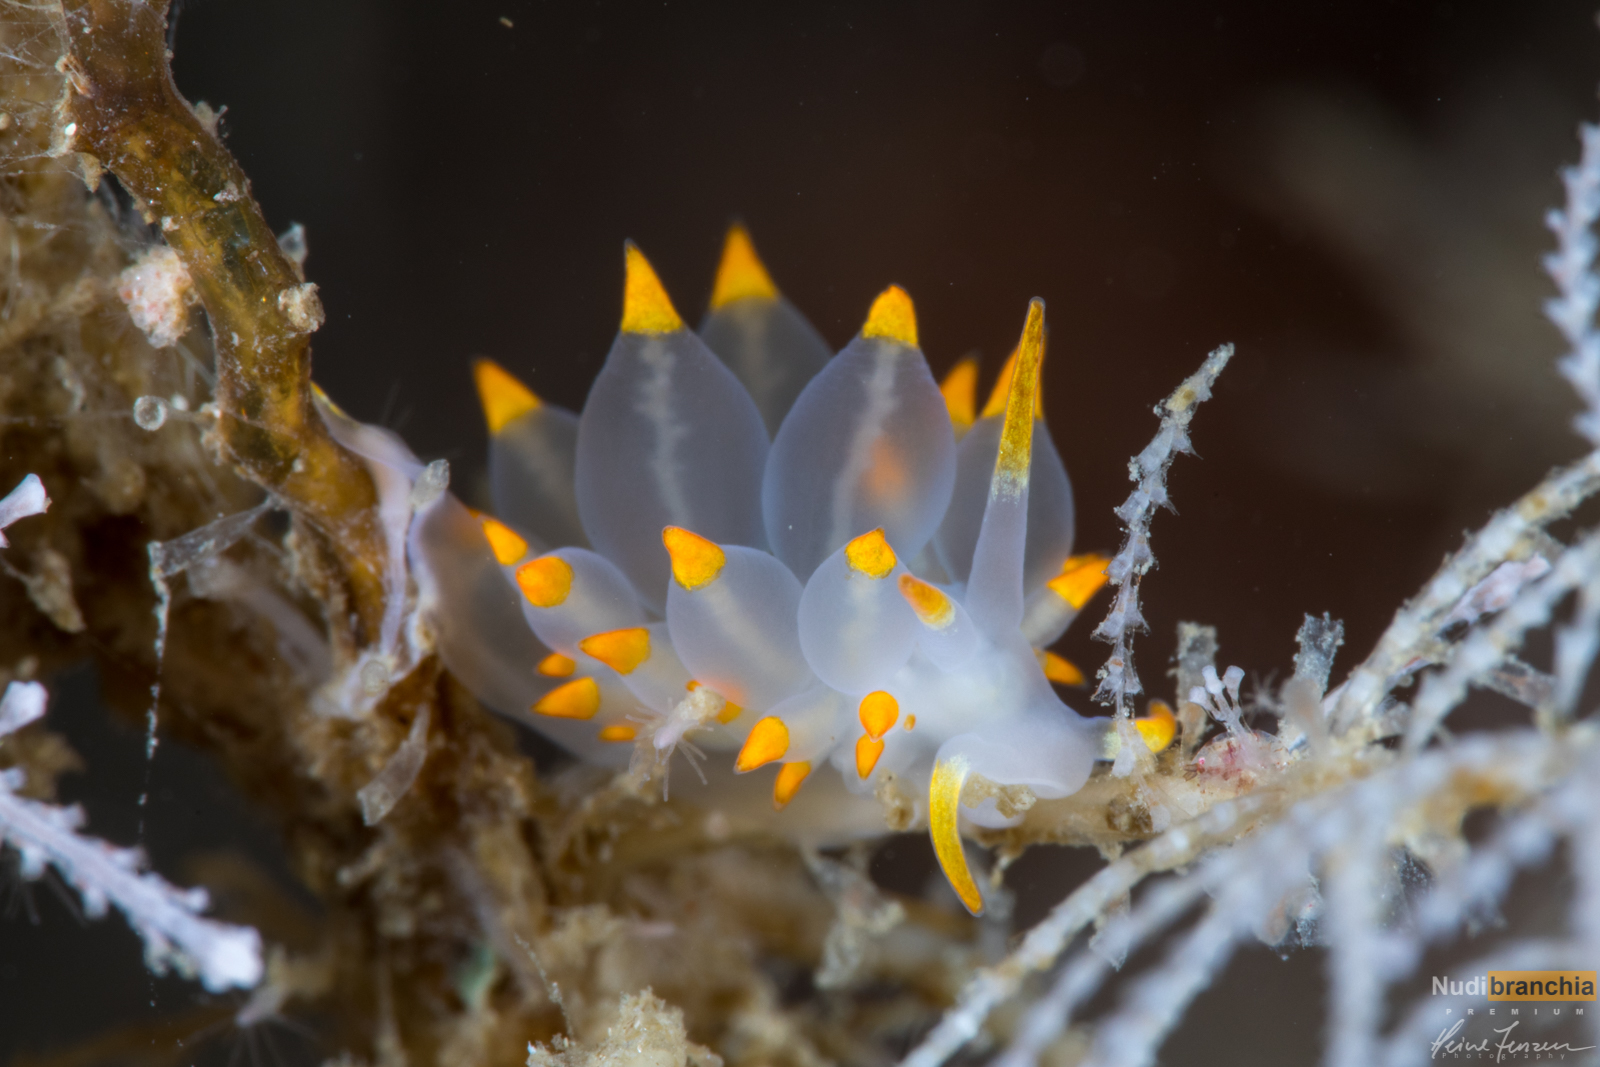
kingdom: Animalia
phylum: Mollusca
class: Gastropoda
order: Nudibranchia
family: Eubranchidae
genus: Amphorina
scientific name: Amphorina farrani
